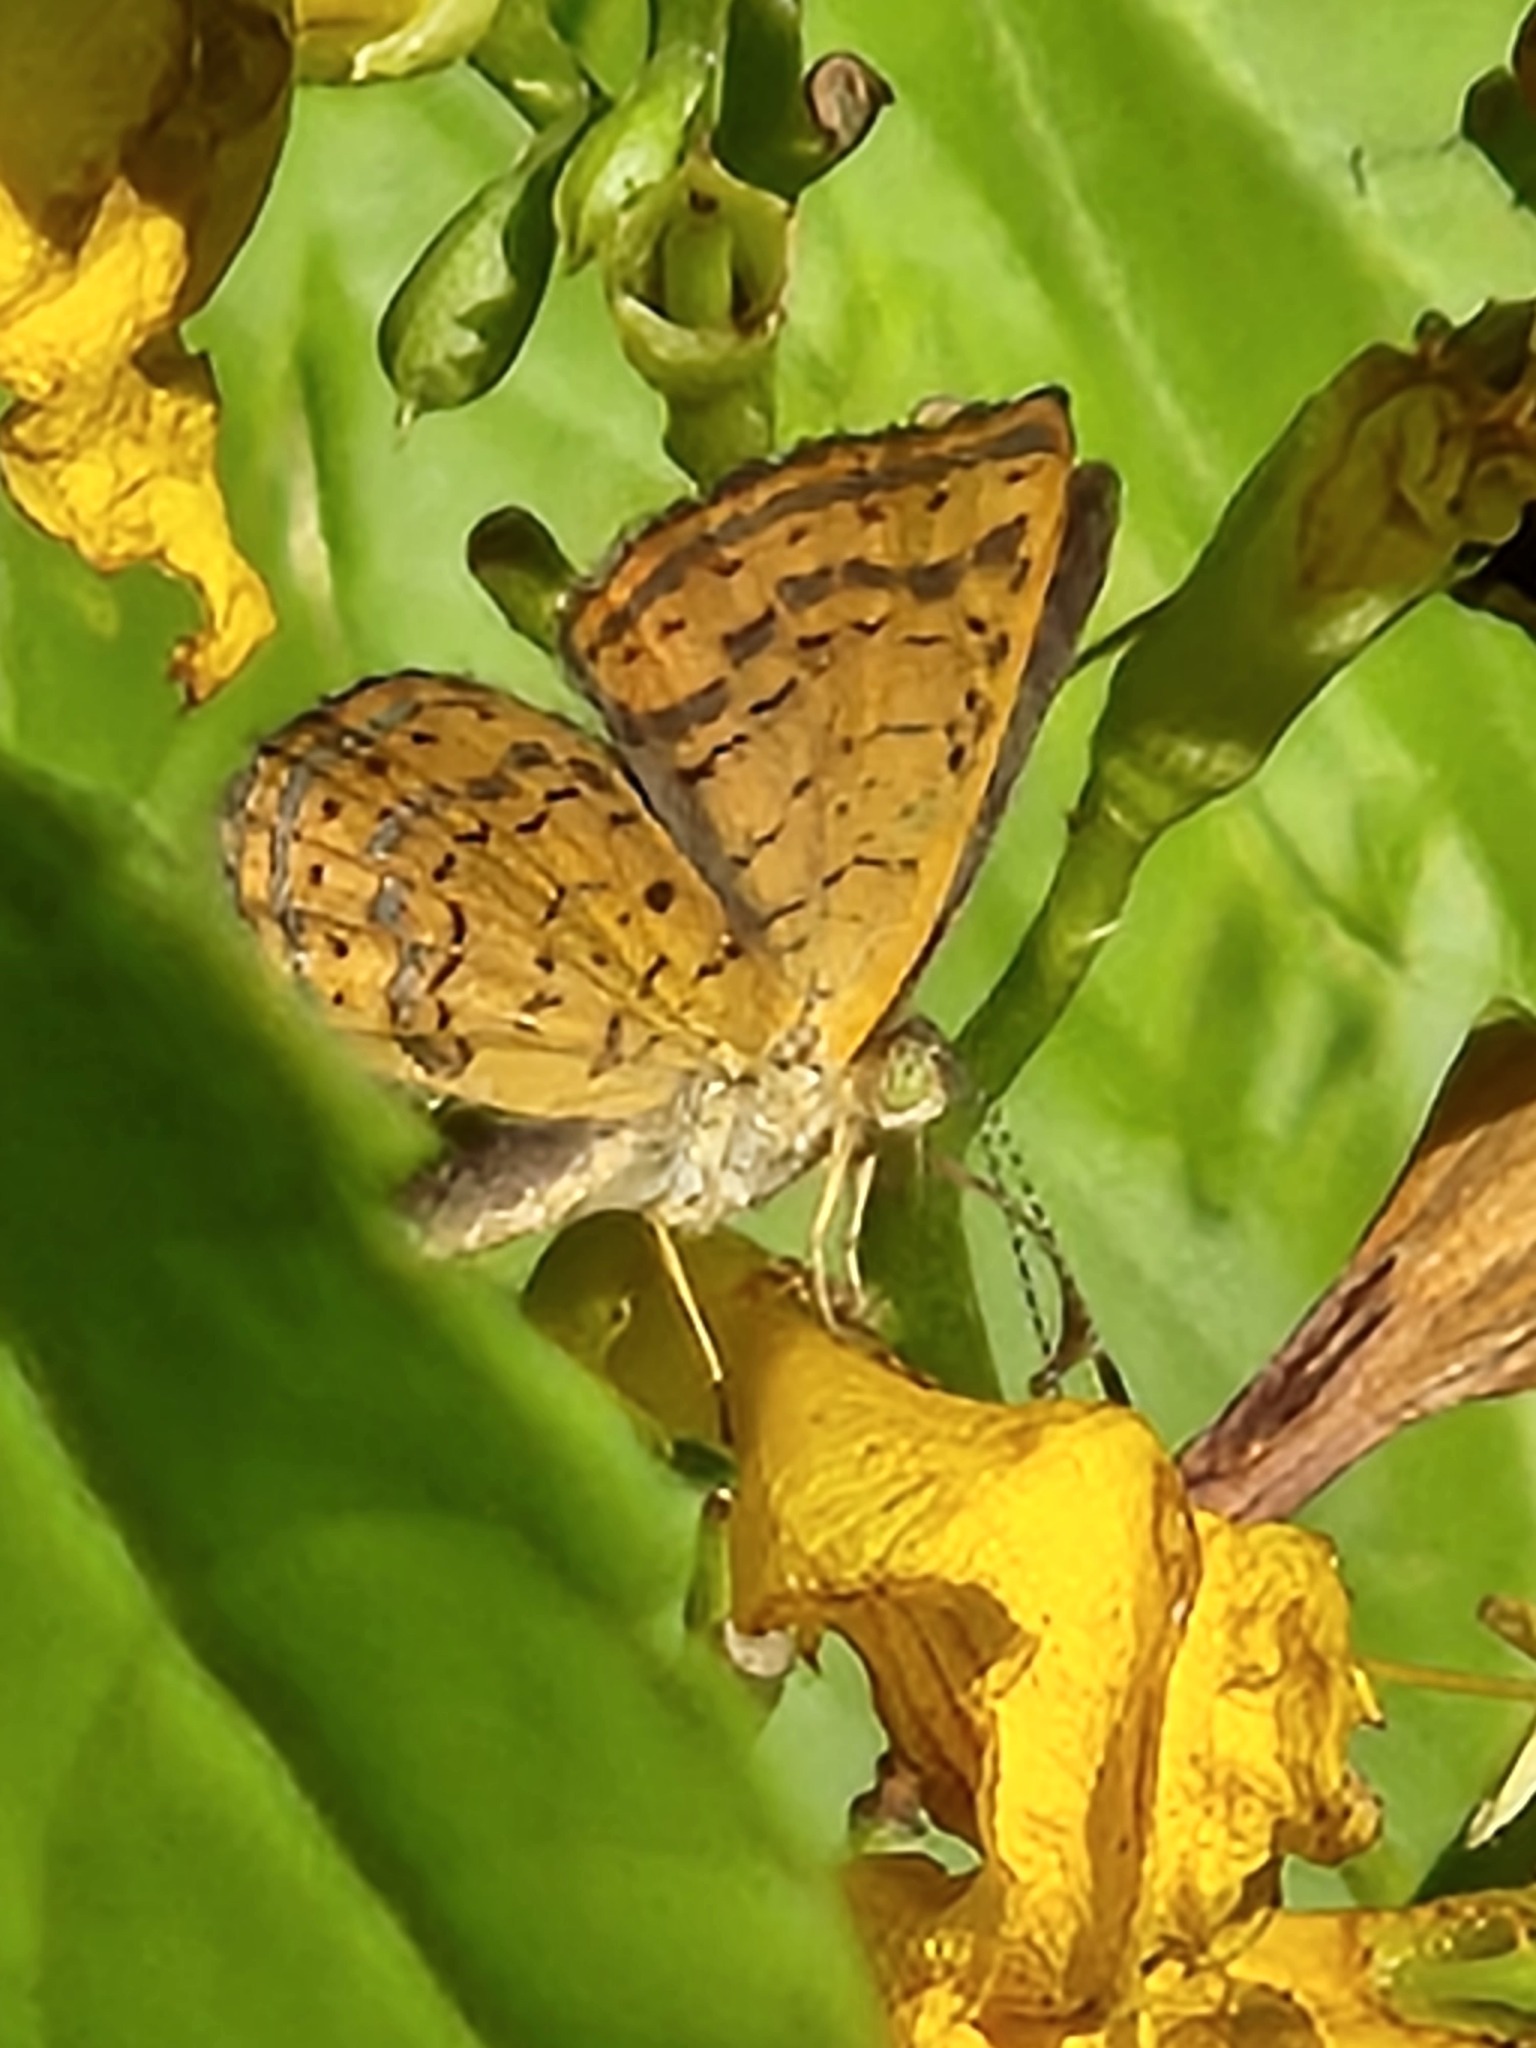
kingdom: Animalia
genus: Calephelis
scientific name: Calephelis perditalis
